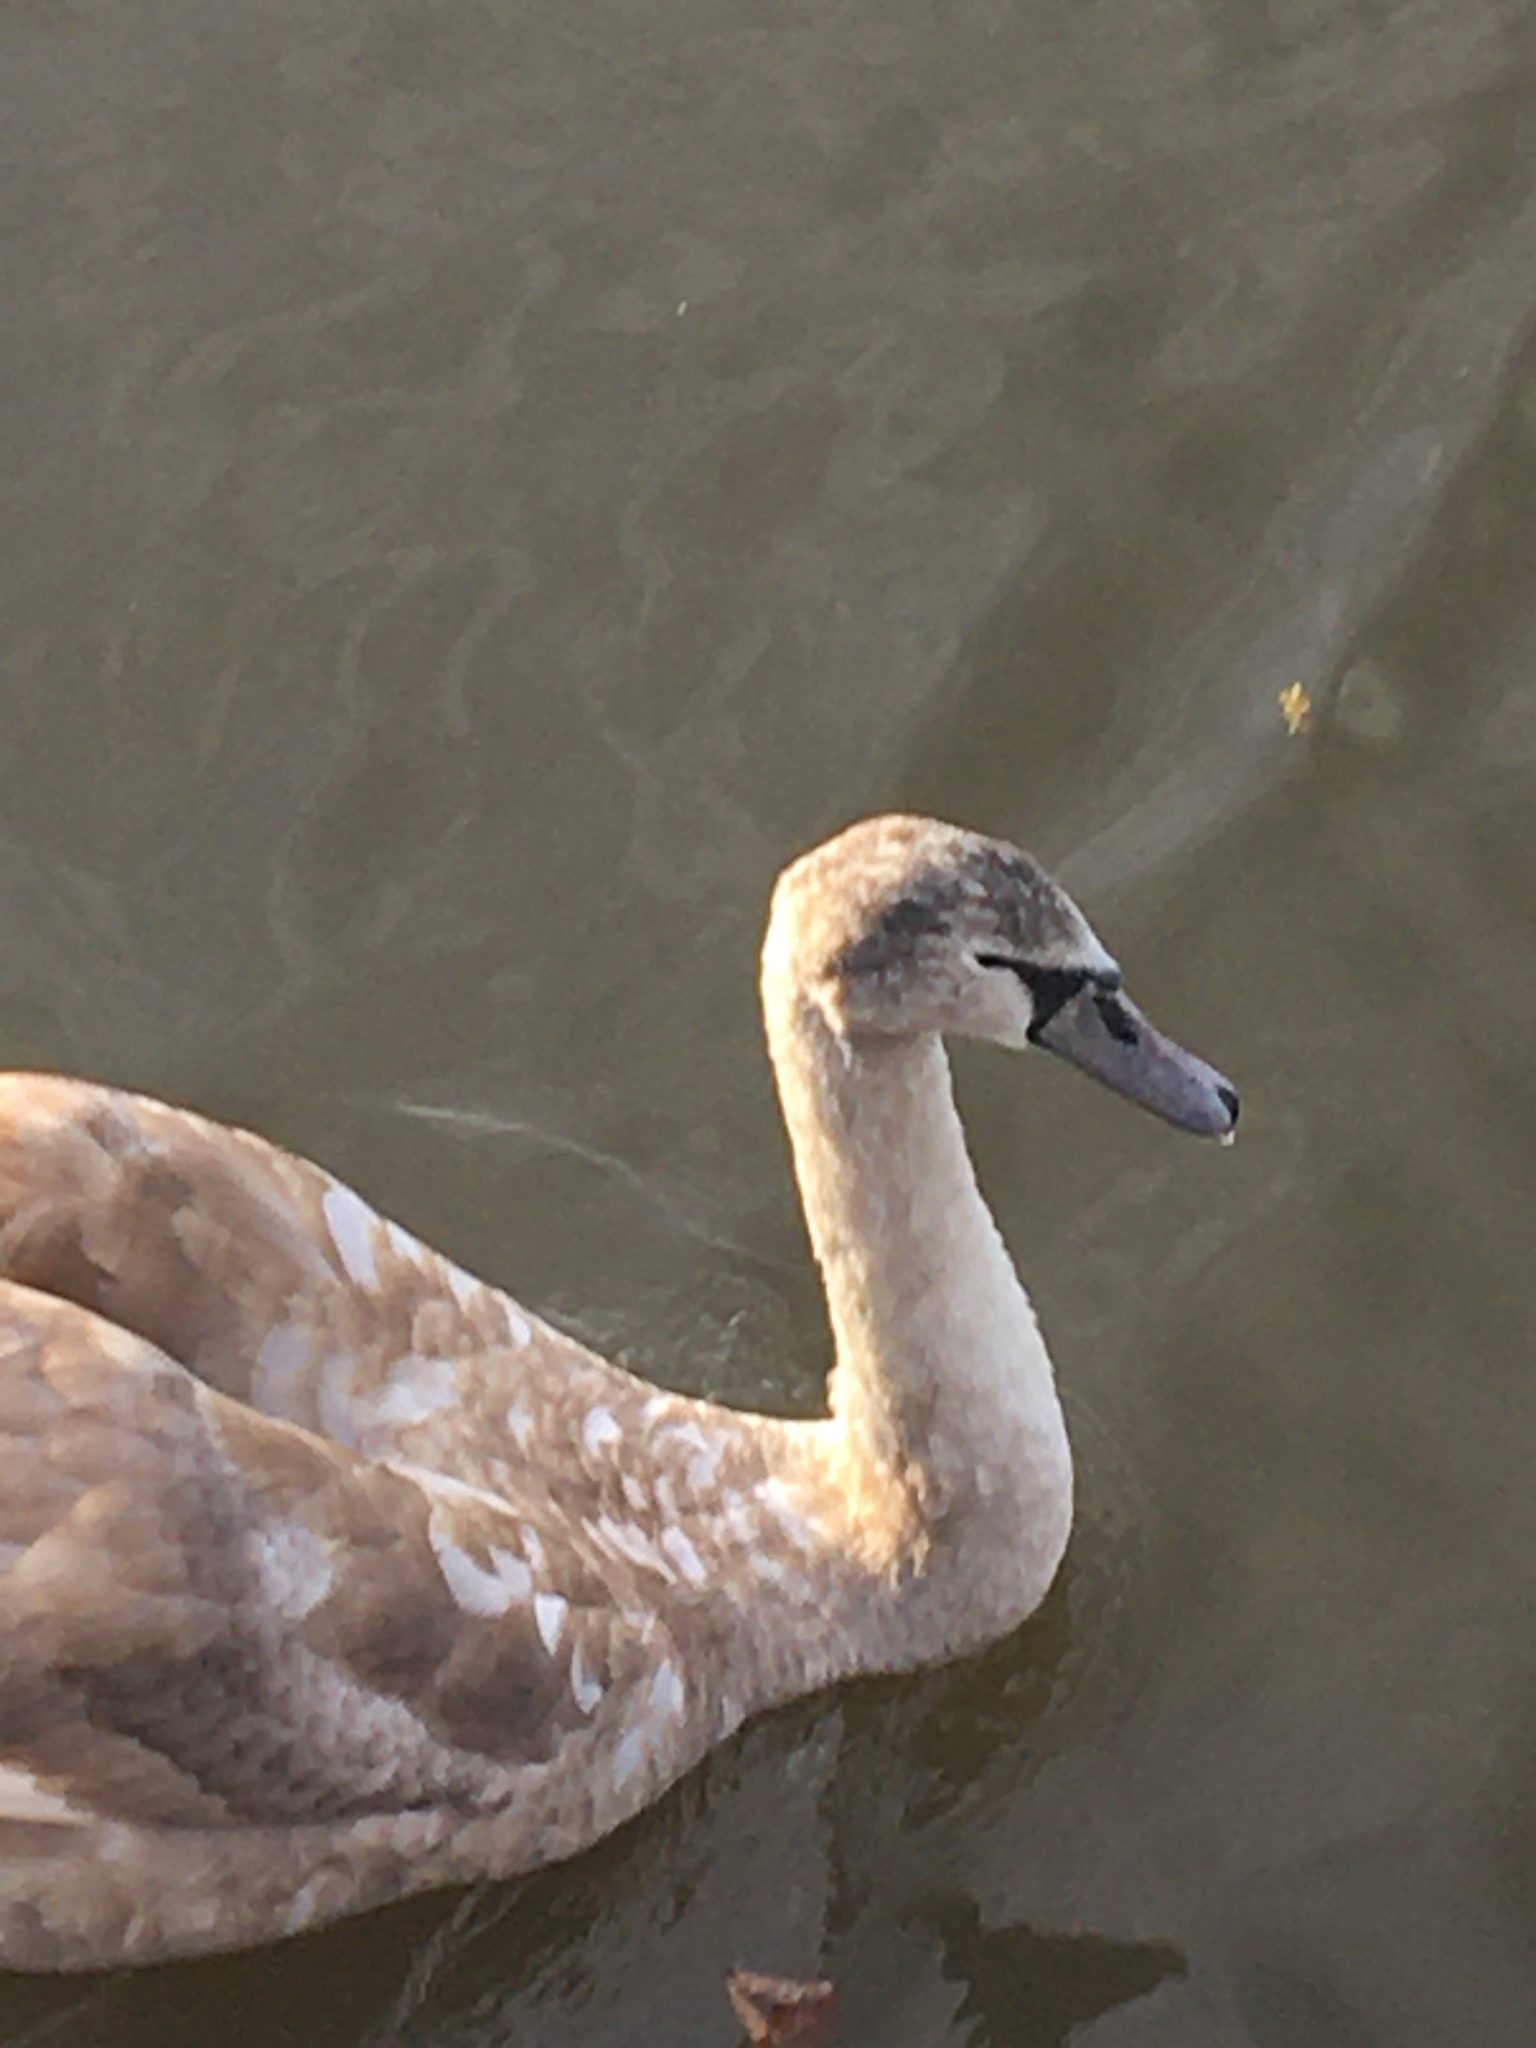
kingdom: Animalia
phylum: Chordata
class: Aves
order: Anseriformes
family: Anatidae
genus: Cygnus
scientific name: Cygnus olor
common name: Mute swan
